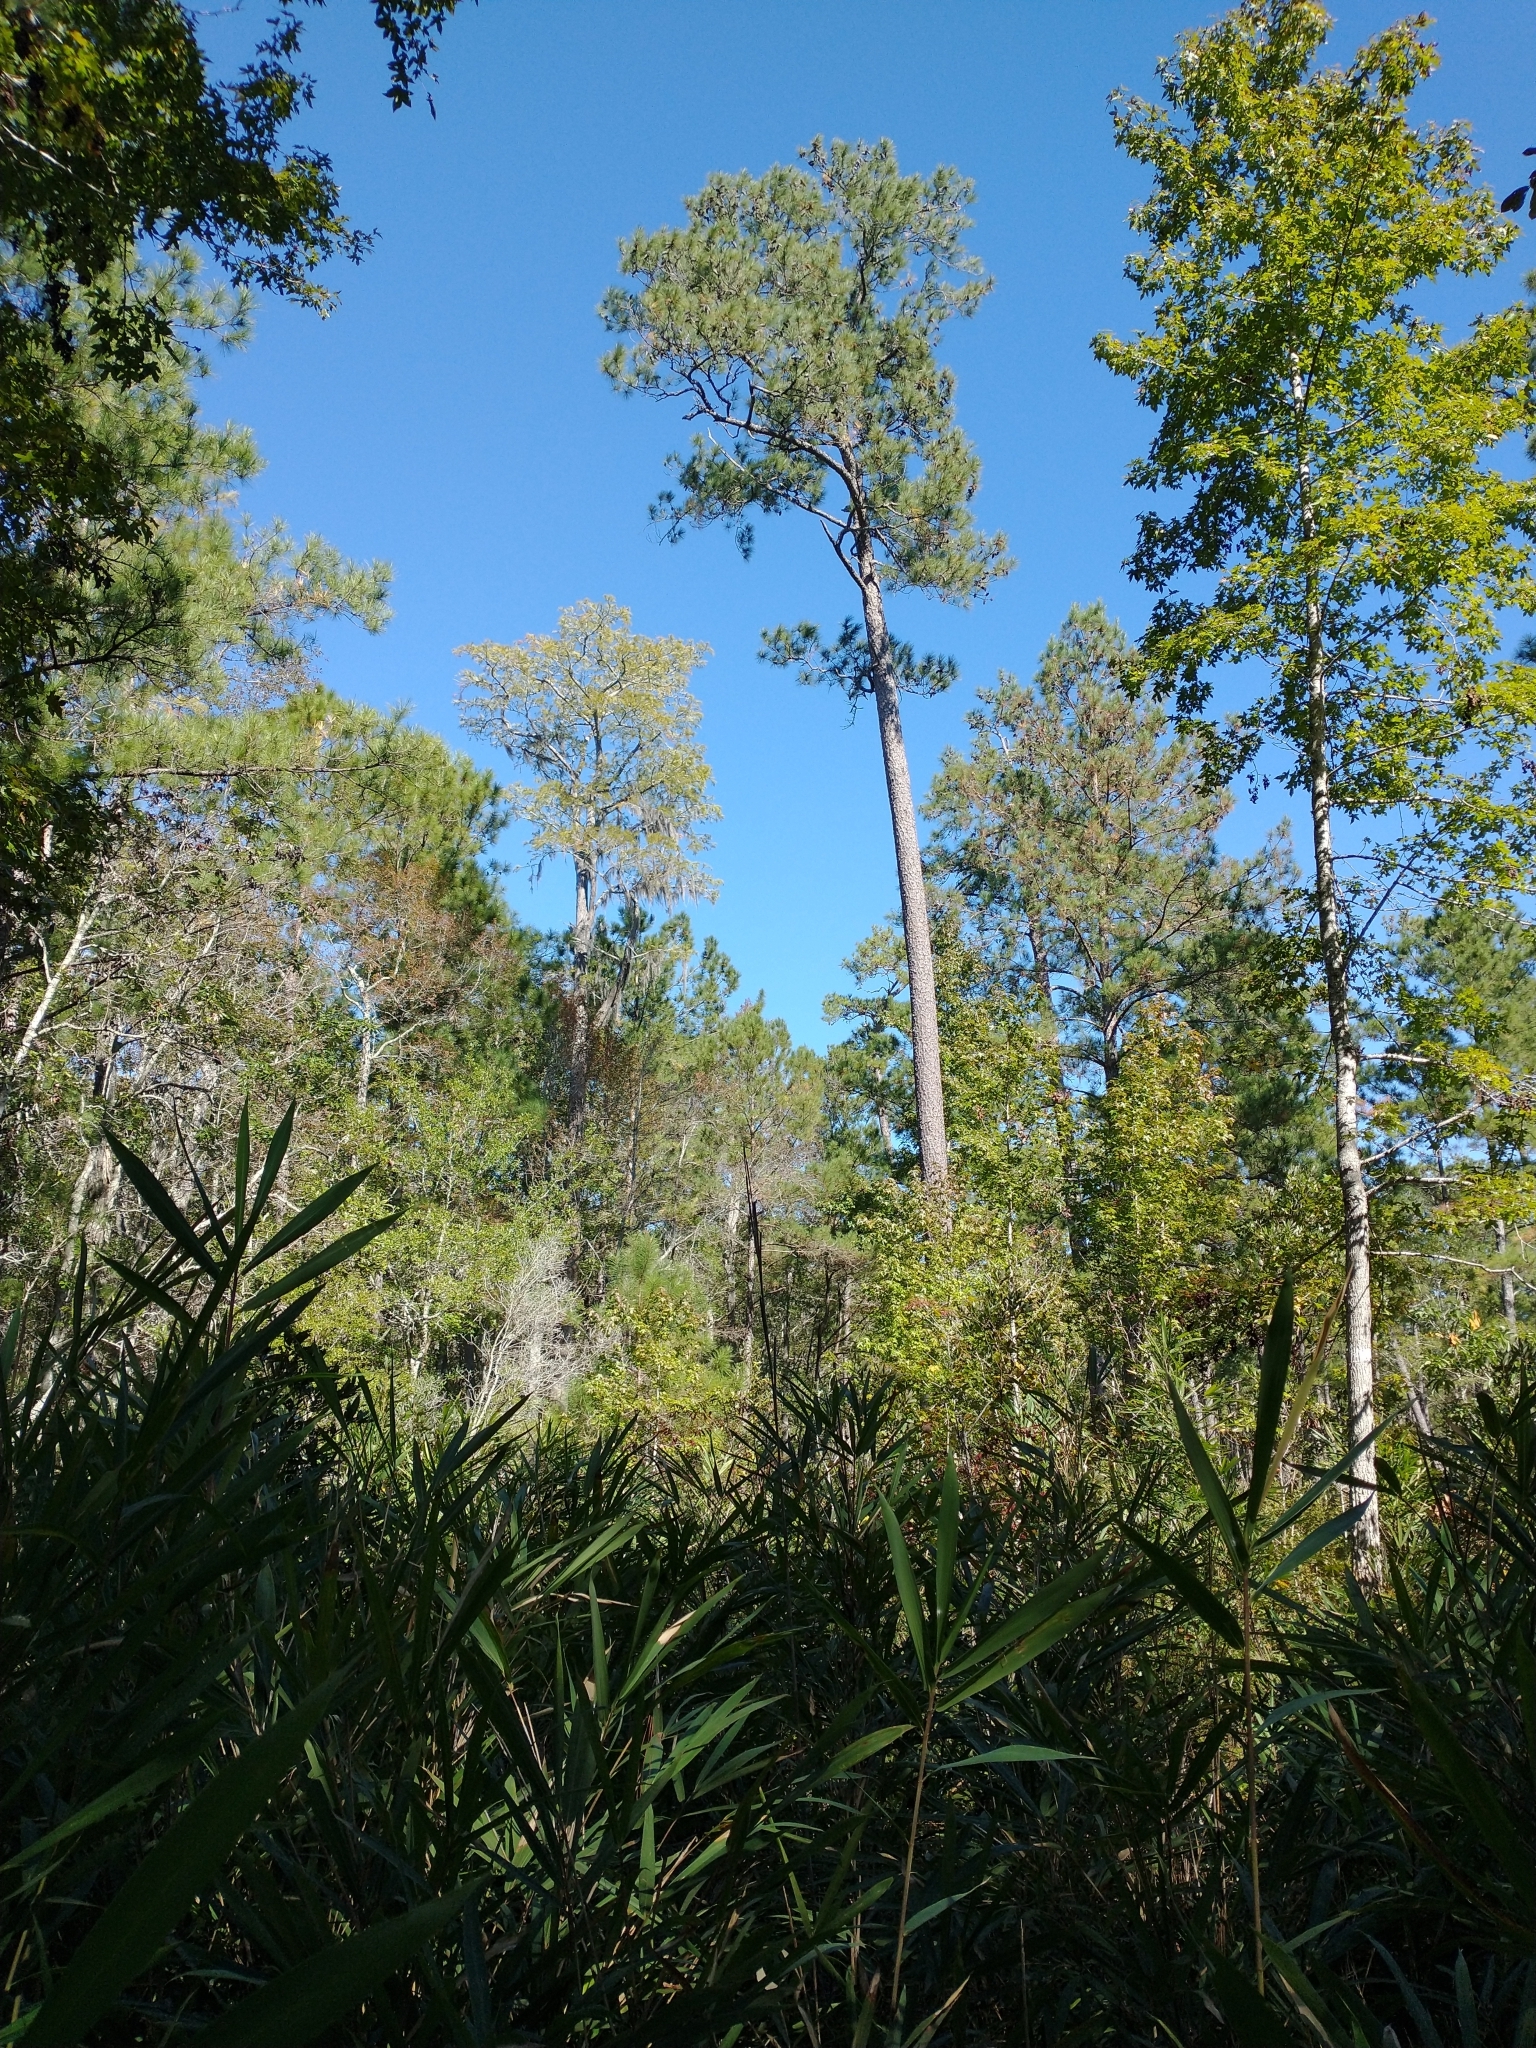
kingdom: Plantae
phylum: Tracheophyta
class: Liliopsida
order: Poales
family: Poaceae
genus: Arundinaria
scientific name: Arundinaria tecta
